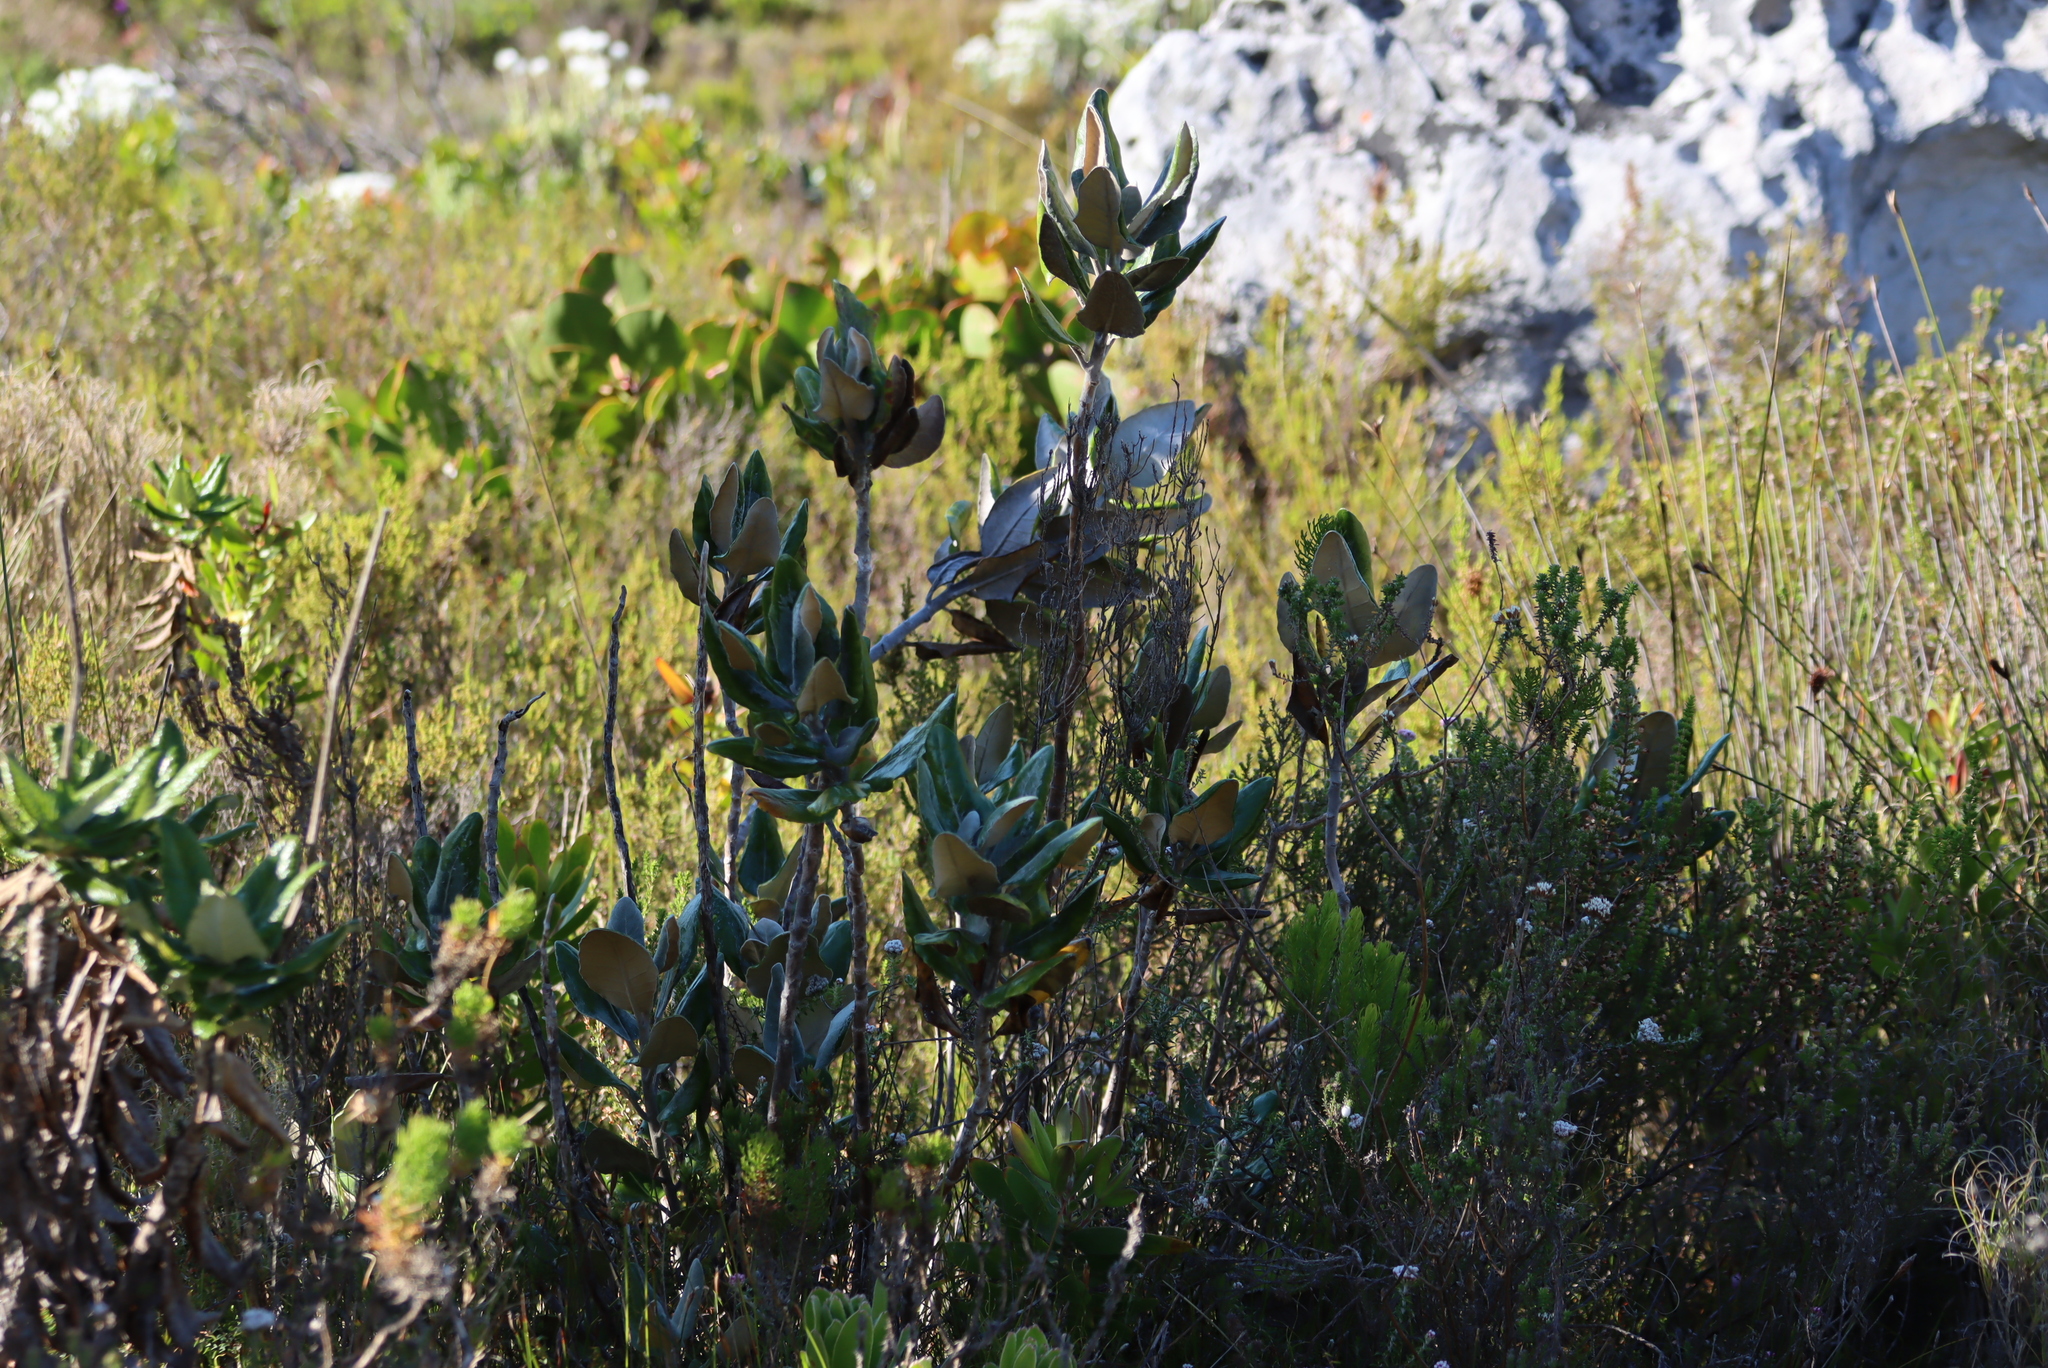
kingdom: Plantae
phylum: Tracheophyta
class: Magnoliopsida
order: Asterales
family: Asteraceae
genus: Capelio
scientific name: Capelio tabularis
